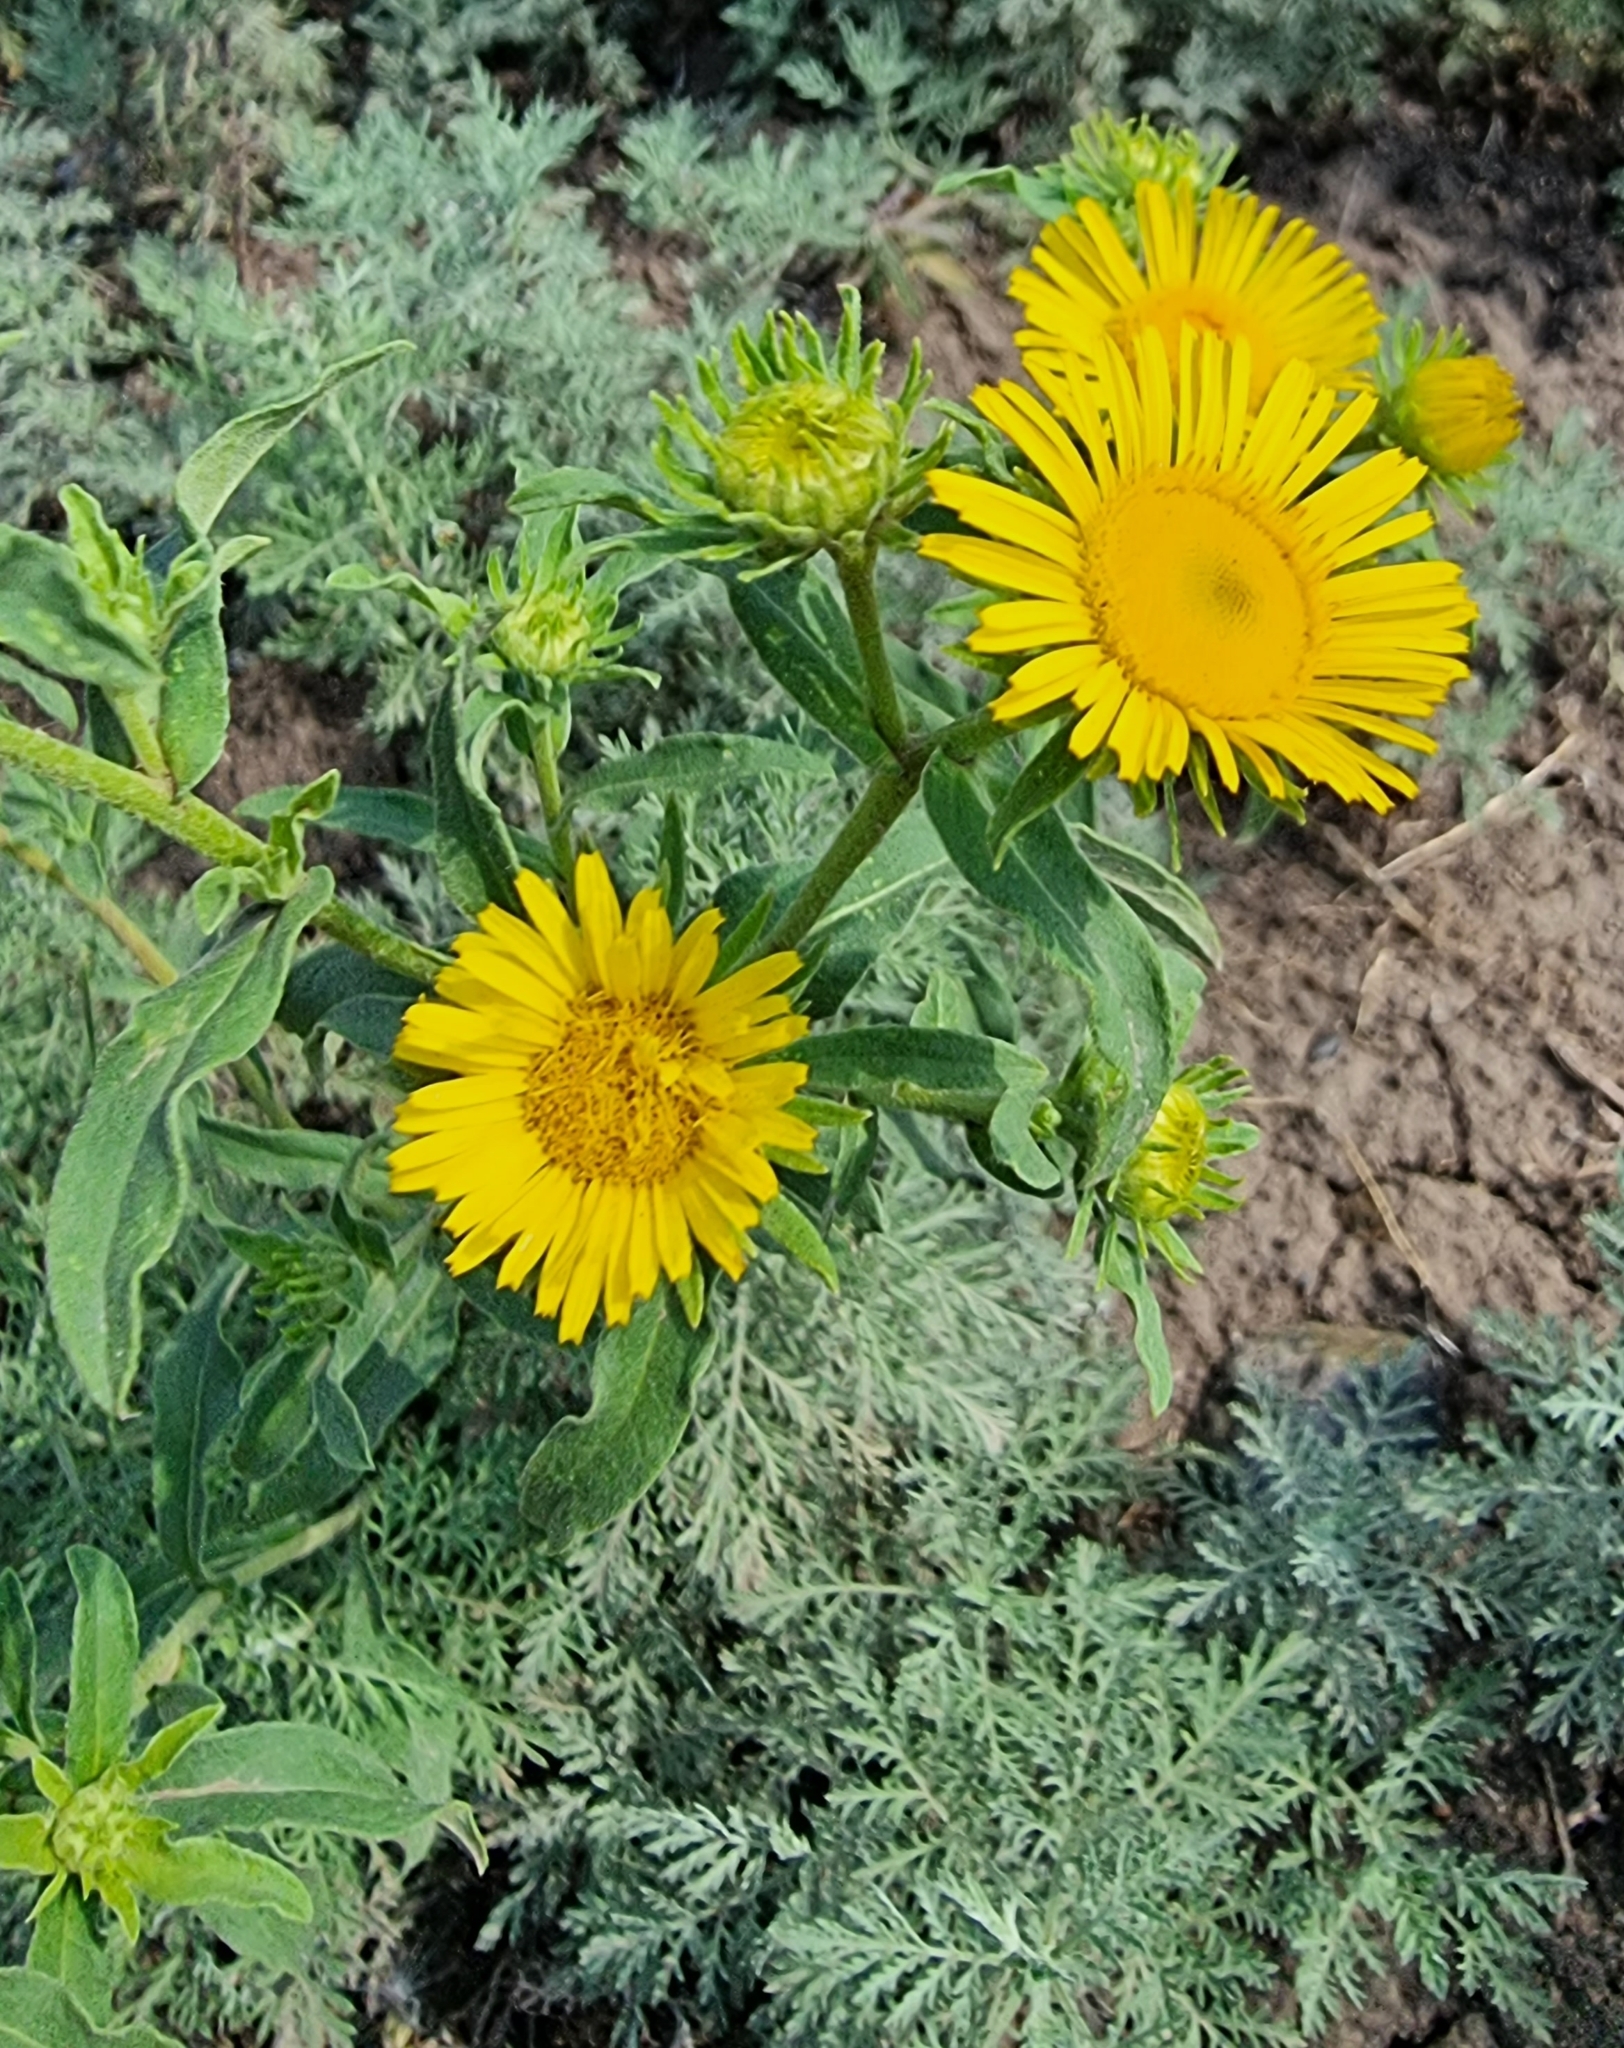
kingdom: Plantae
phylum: Tracheophyta
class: Magnoliopsida
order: Asterales
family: Asteraceae
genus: Pentanema
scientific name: Pentanema britannicum
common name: British elecampane
